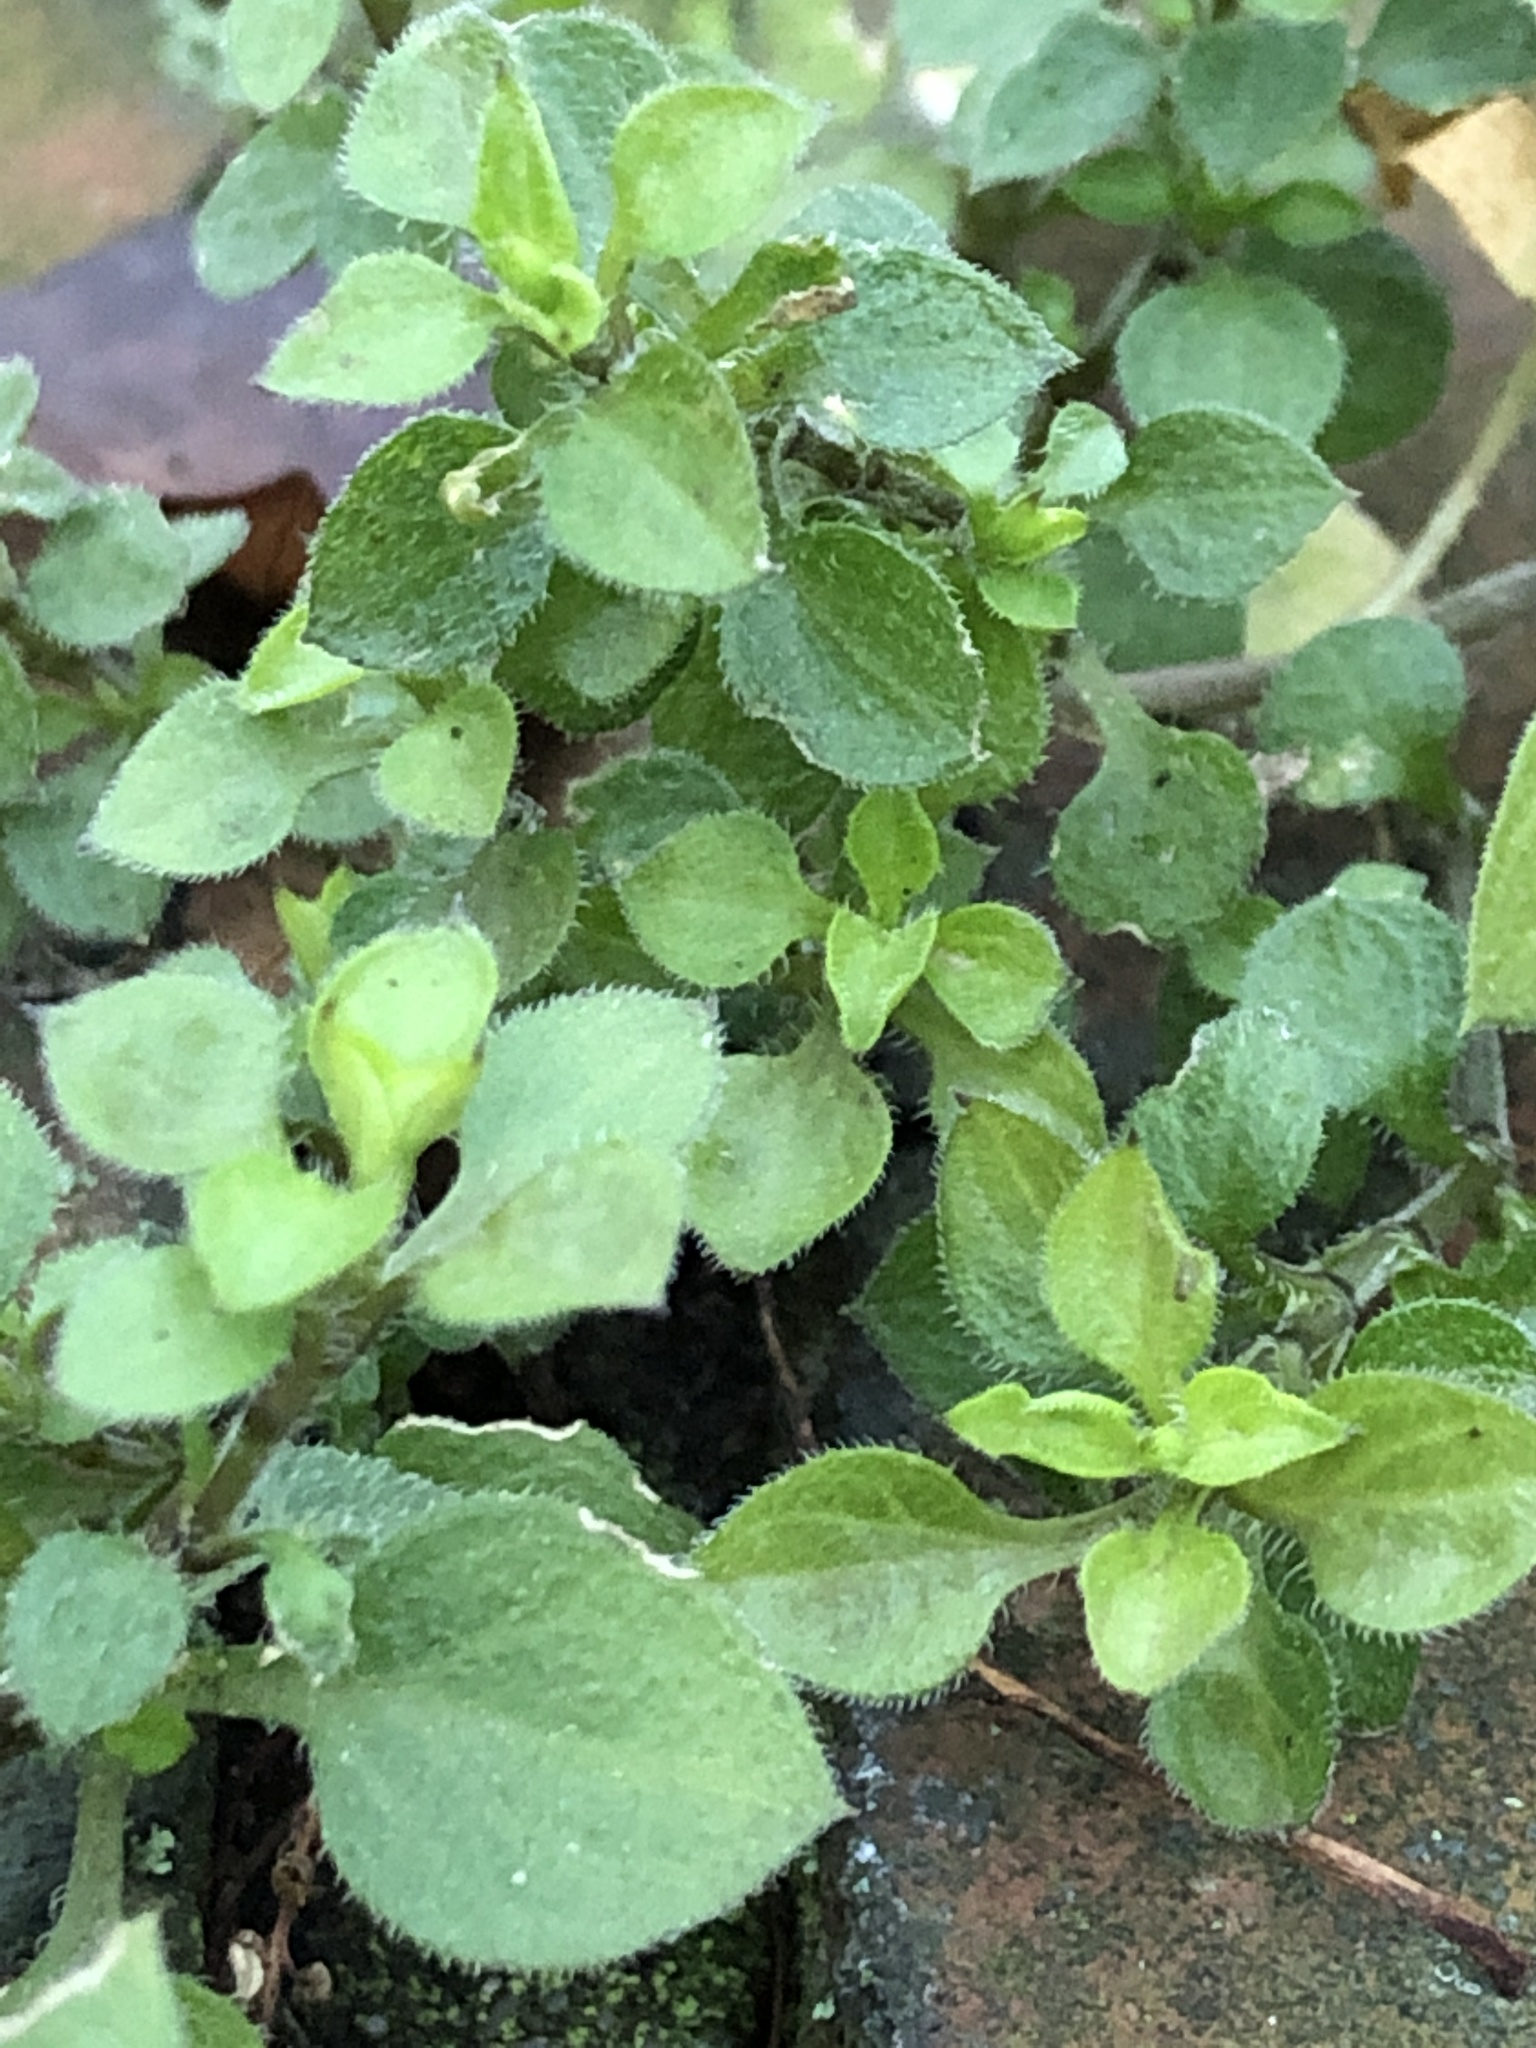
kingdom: Plantae
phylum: Tracheophyta
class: Magnoliopsida
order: Caryophyllales
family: Caryophyllaceae
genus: Moehringia
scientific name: Moehringia trinervia
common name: Three-nerved sandwort
